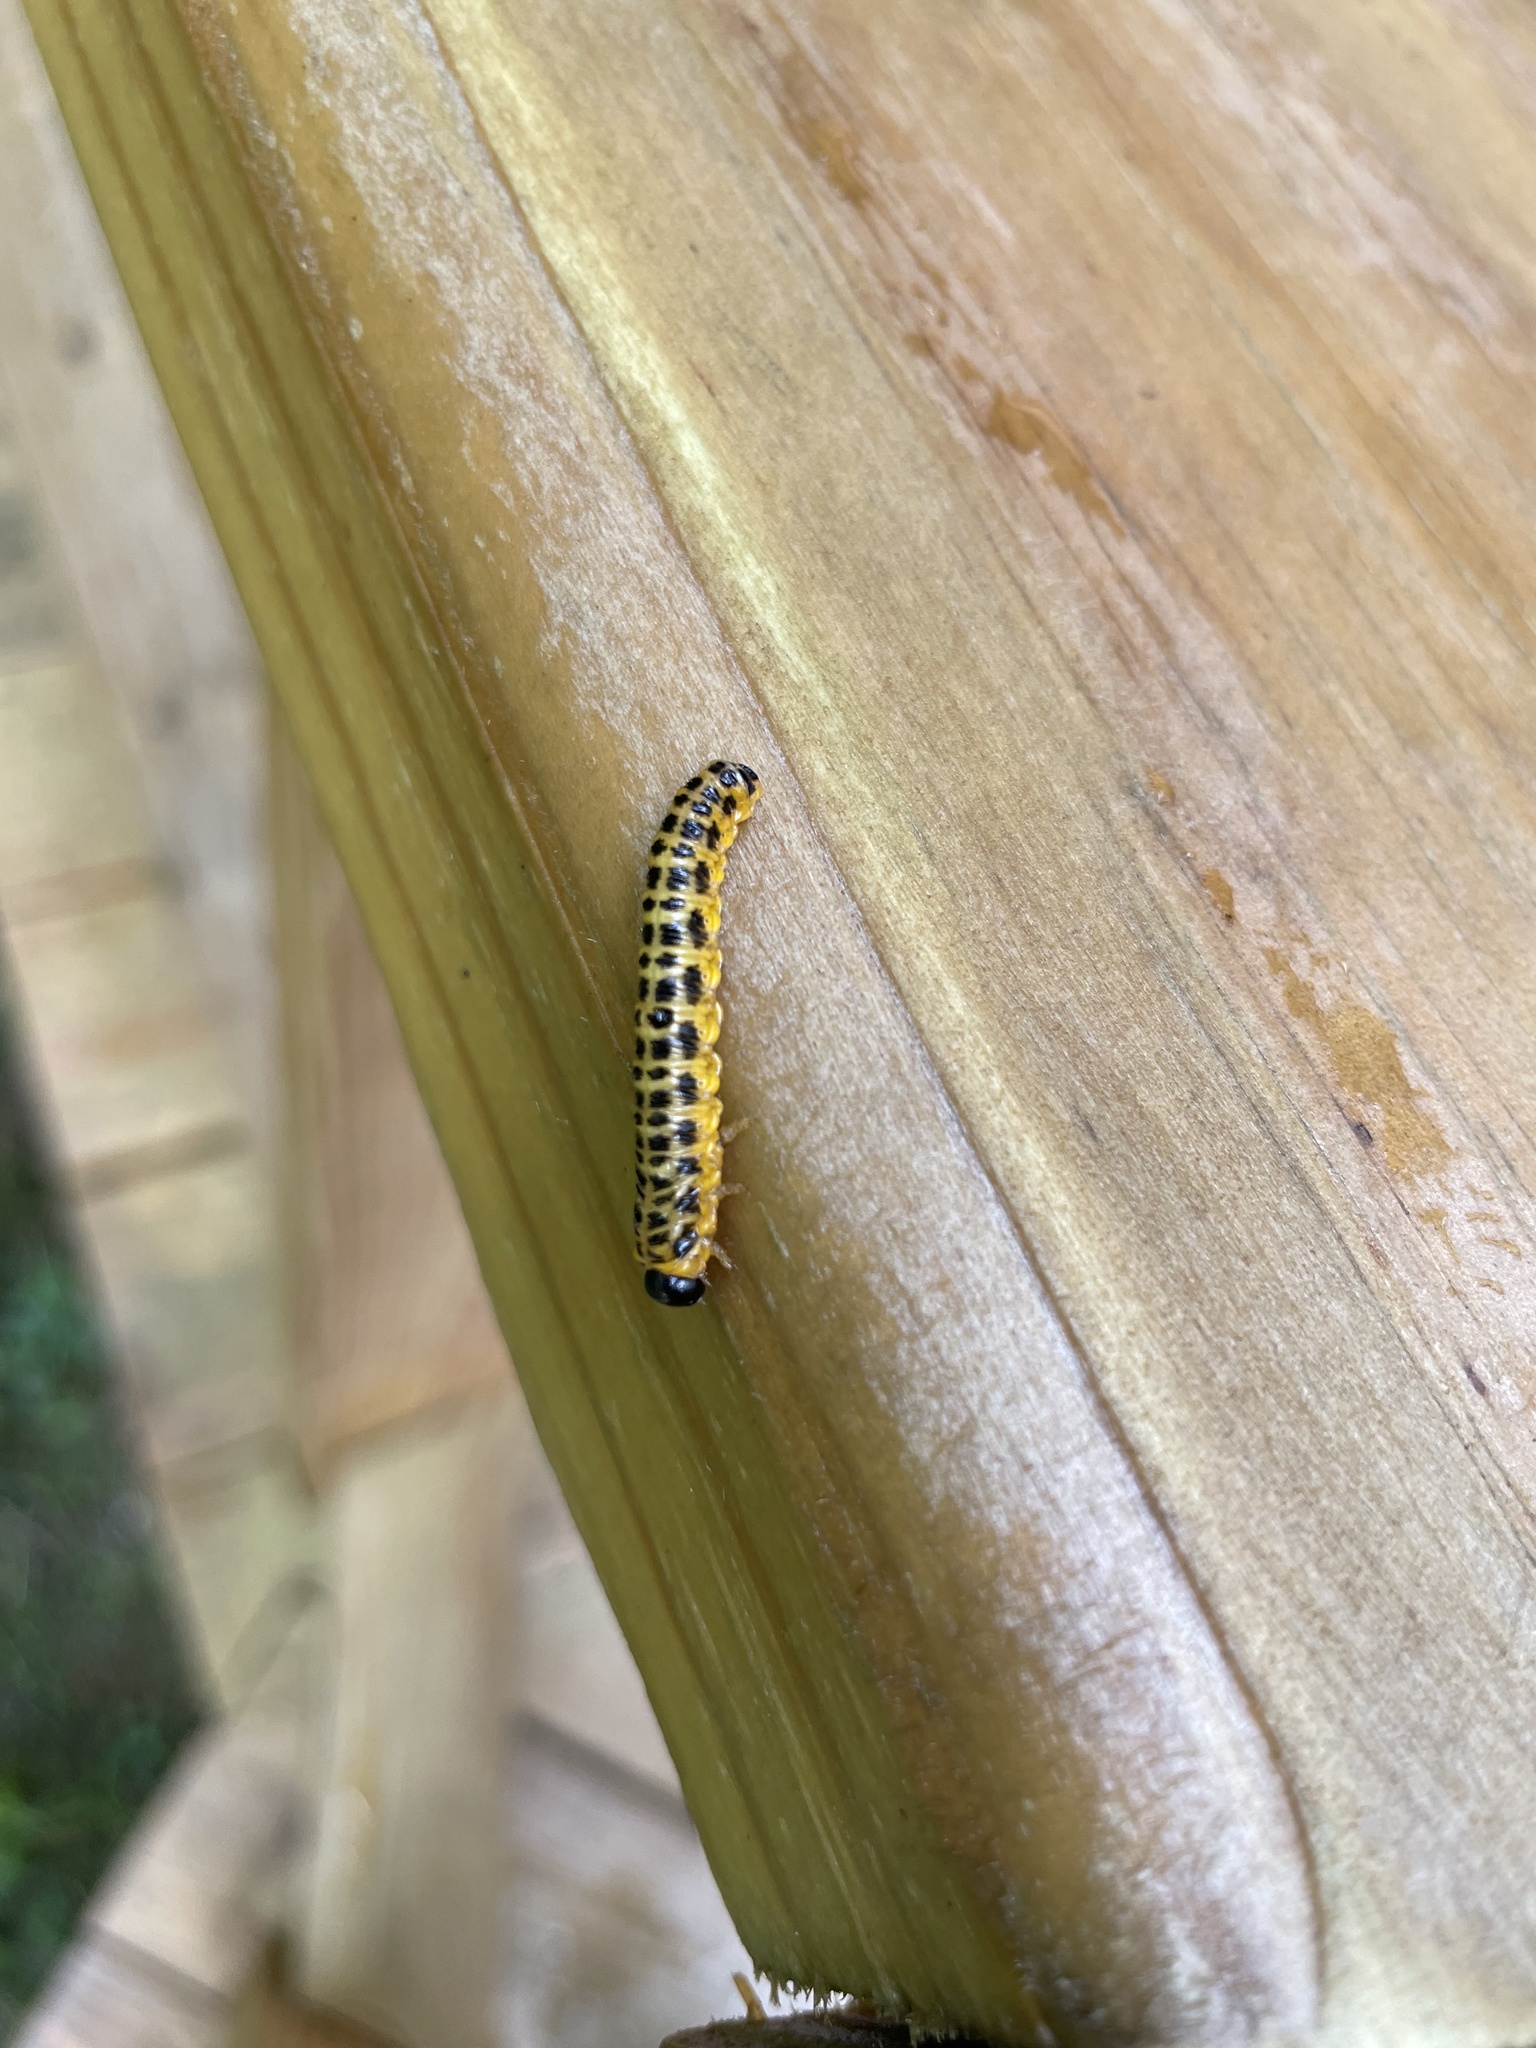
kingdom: Animalia
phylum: Arthropoda
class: Insecta
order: Hymenoptera
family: Tenthredinidae
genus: Macremphytus
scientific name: Macremphytus testaceus
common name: Dogwood sawfly
